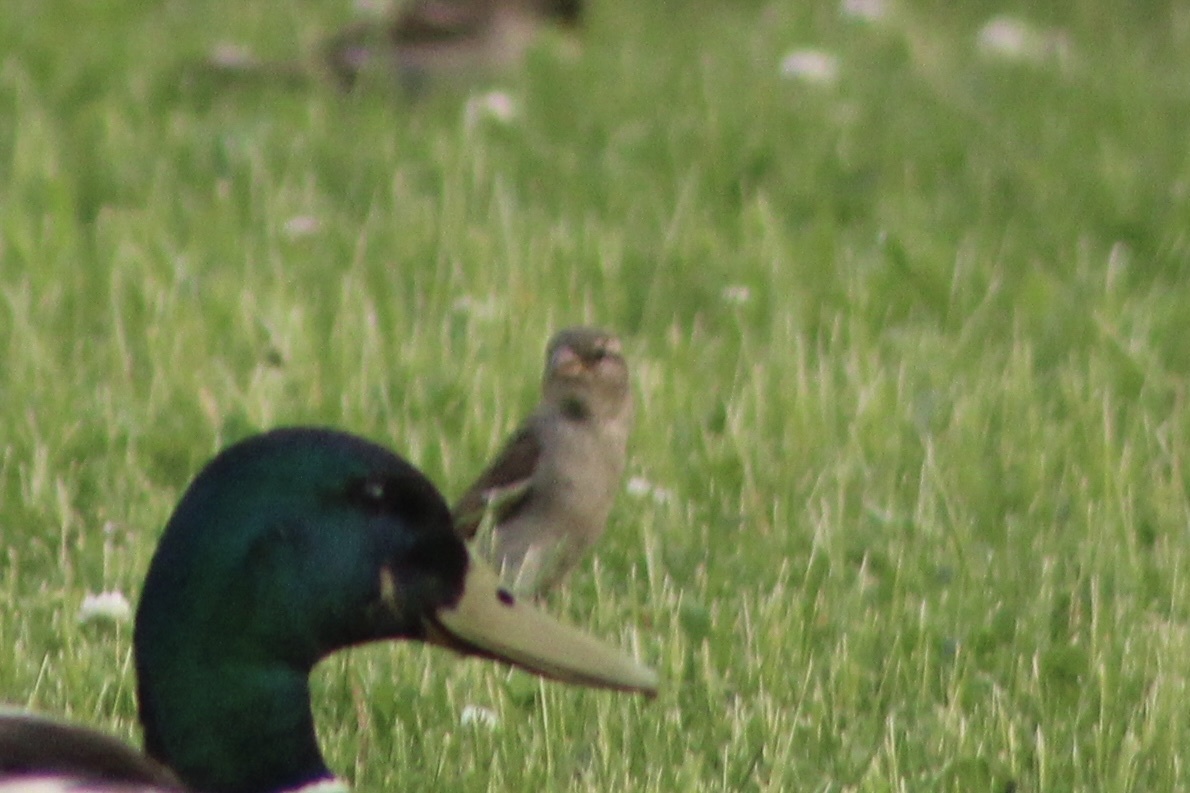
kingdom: Animalia
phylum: Chordata
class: Aves
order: Passeriformes
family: Passeridae
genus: Passer
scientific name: Passer domesticus
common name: House sparrow
